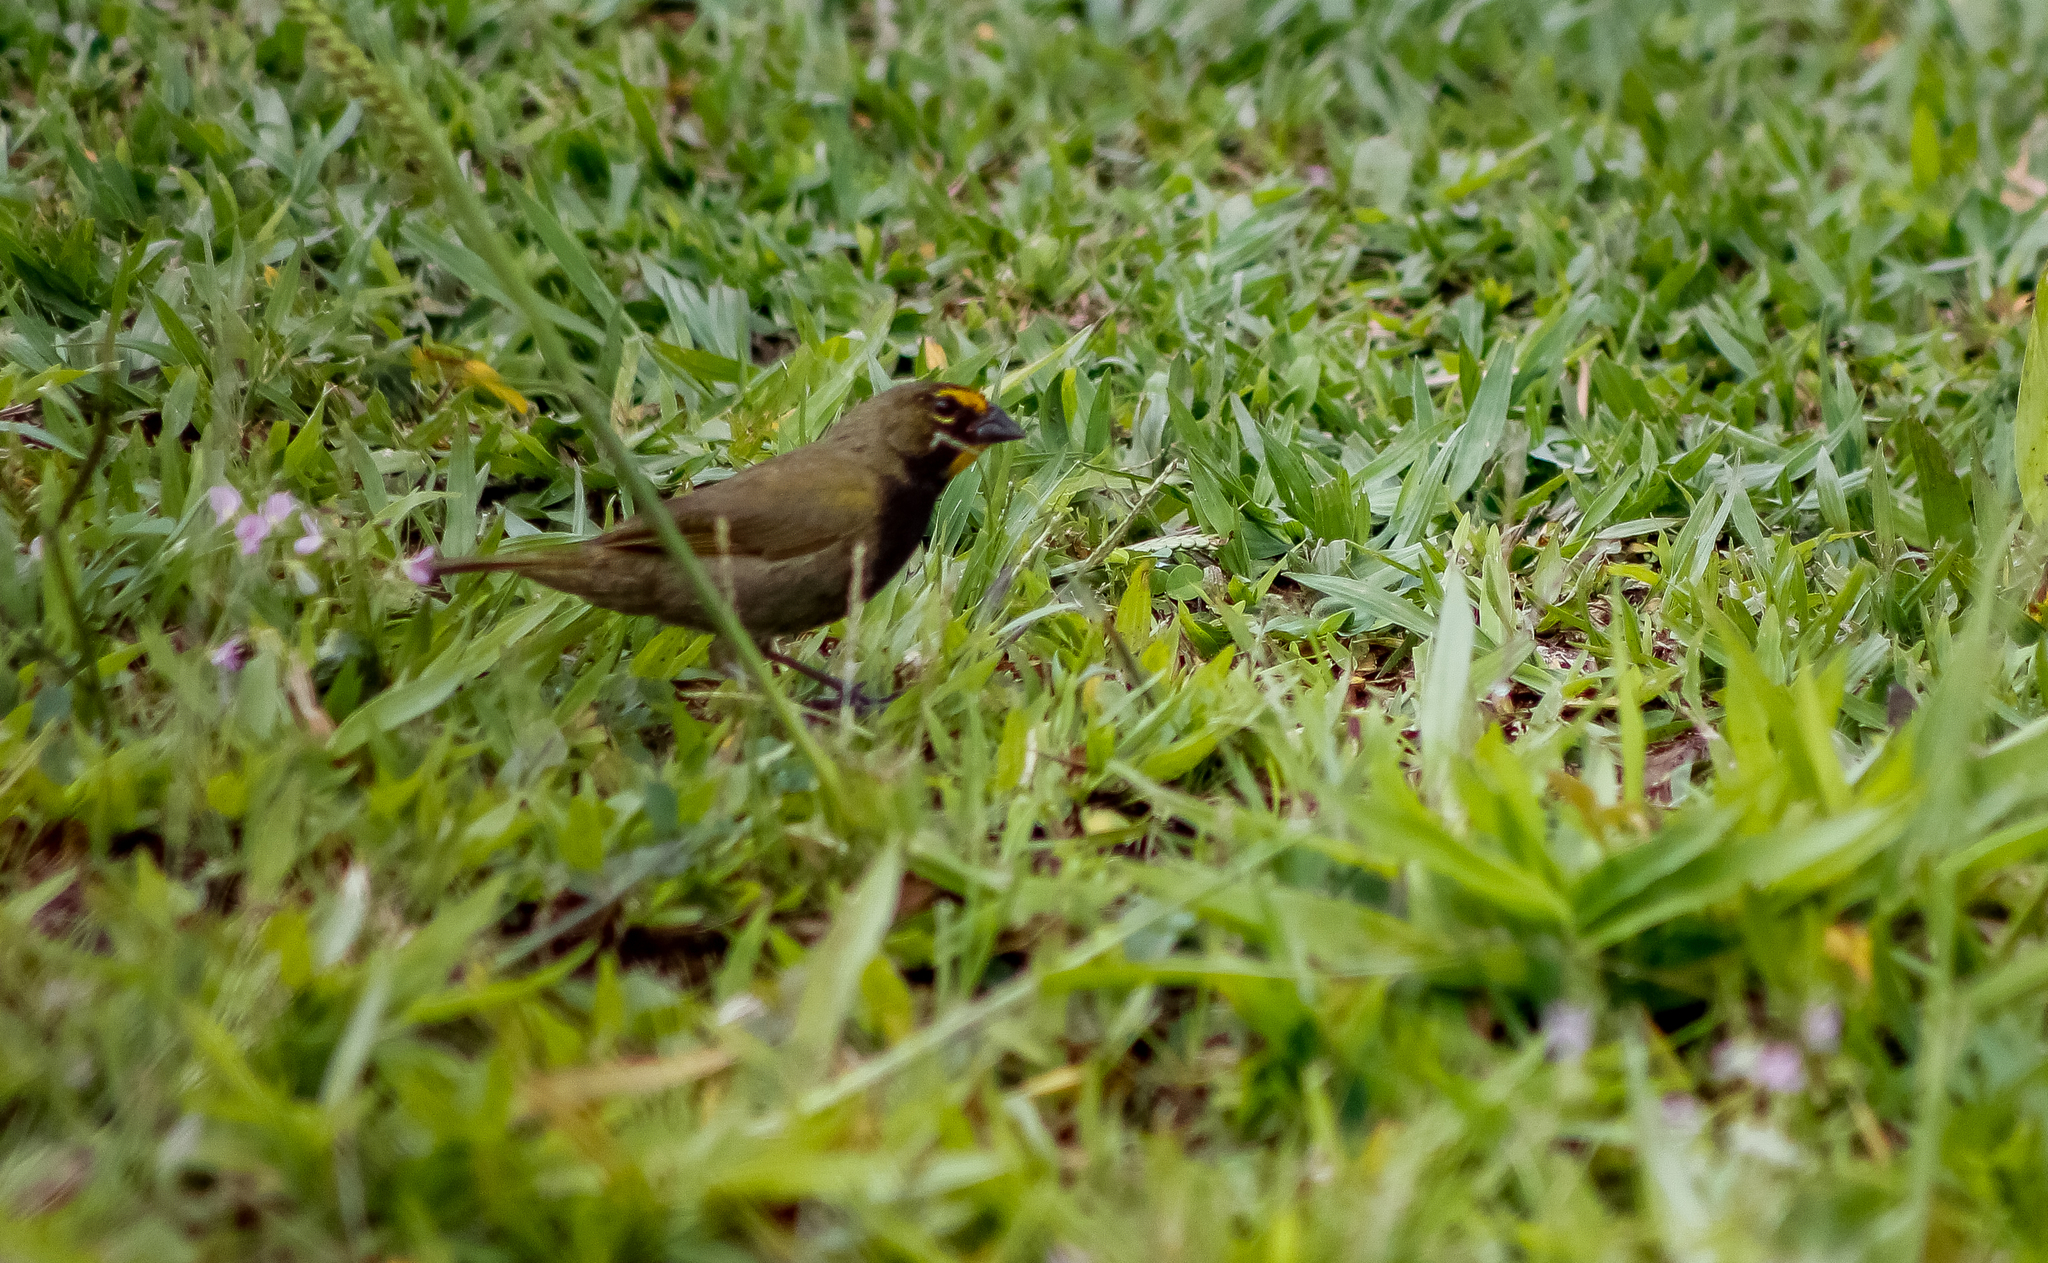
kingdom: Animalia
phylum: Chordata
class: Aves
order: Passeriformes
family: Thraupidae
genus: Tiaris
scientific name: Tiaris olivaceus
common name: Yellow-faced grassquit
